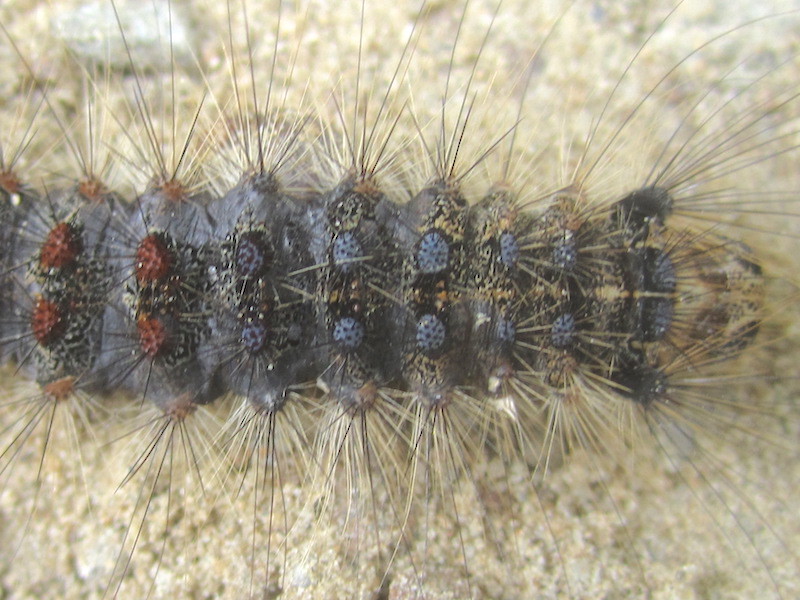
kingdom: Animalia
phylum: Arthropoda
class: Insecta
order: Lepidoptera
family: Erebidae
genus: Lymantria
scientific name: Lymantria dispar
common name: Gypsy moth
